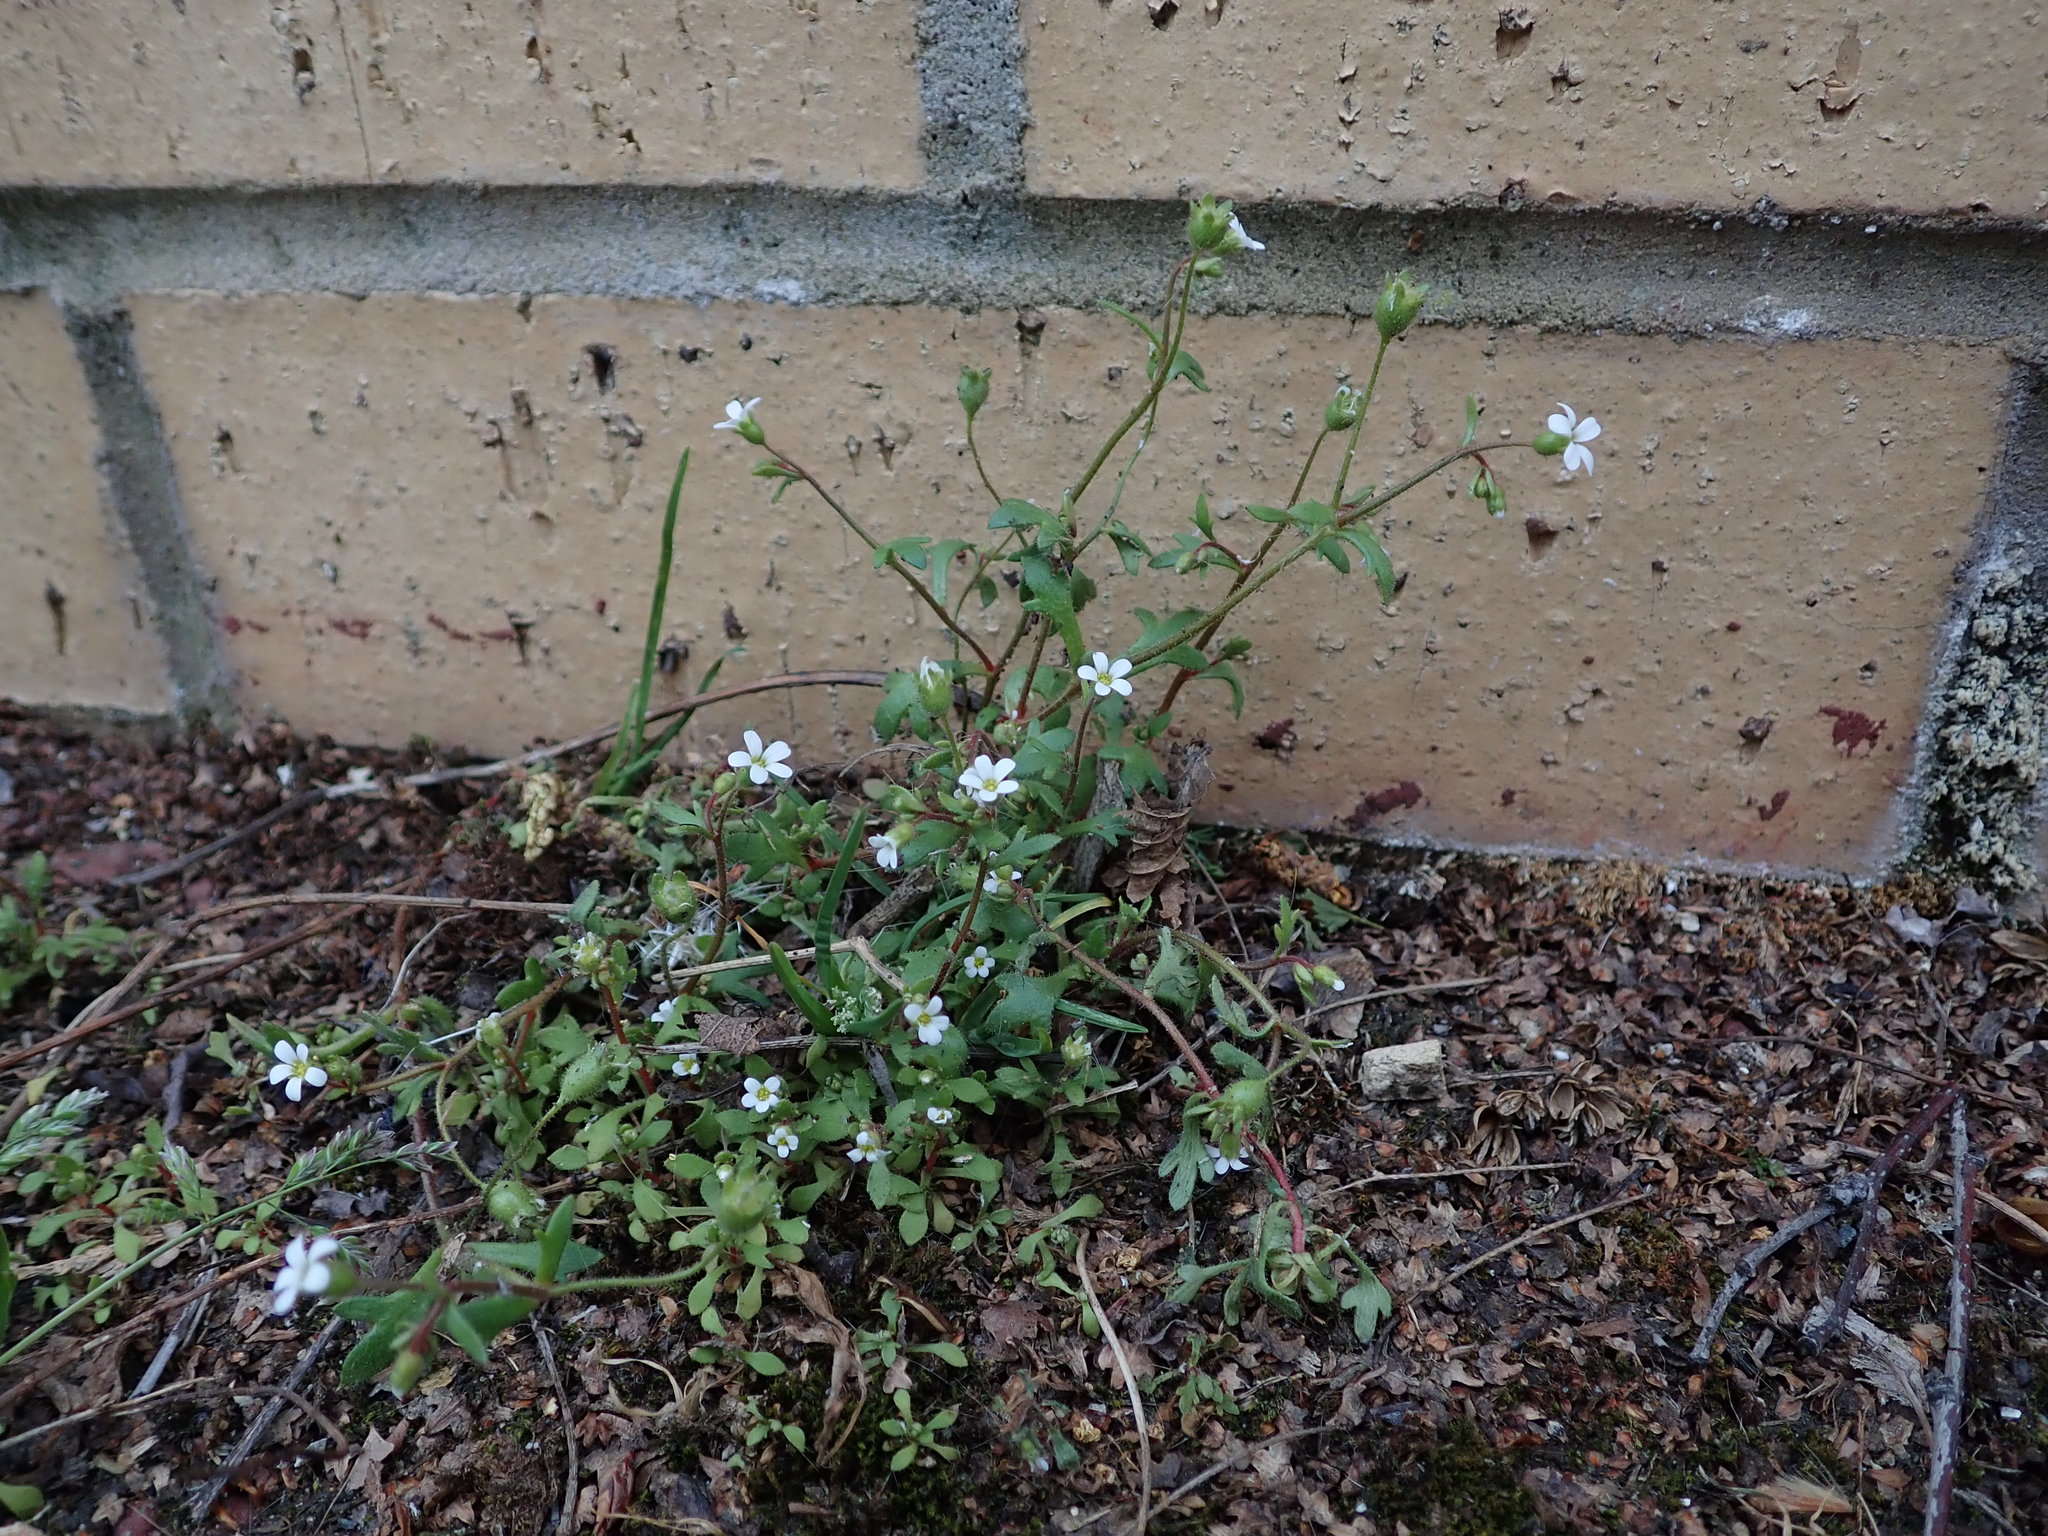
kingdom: Plantae
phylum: Tracheophyta
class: Magnoliopsida
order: Saxifragales
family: Saxifragaceae
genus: Saxifraga
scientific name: Saxifraga tridactylites
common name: Rue-leaved saxifrage
